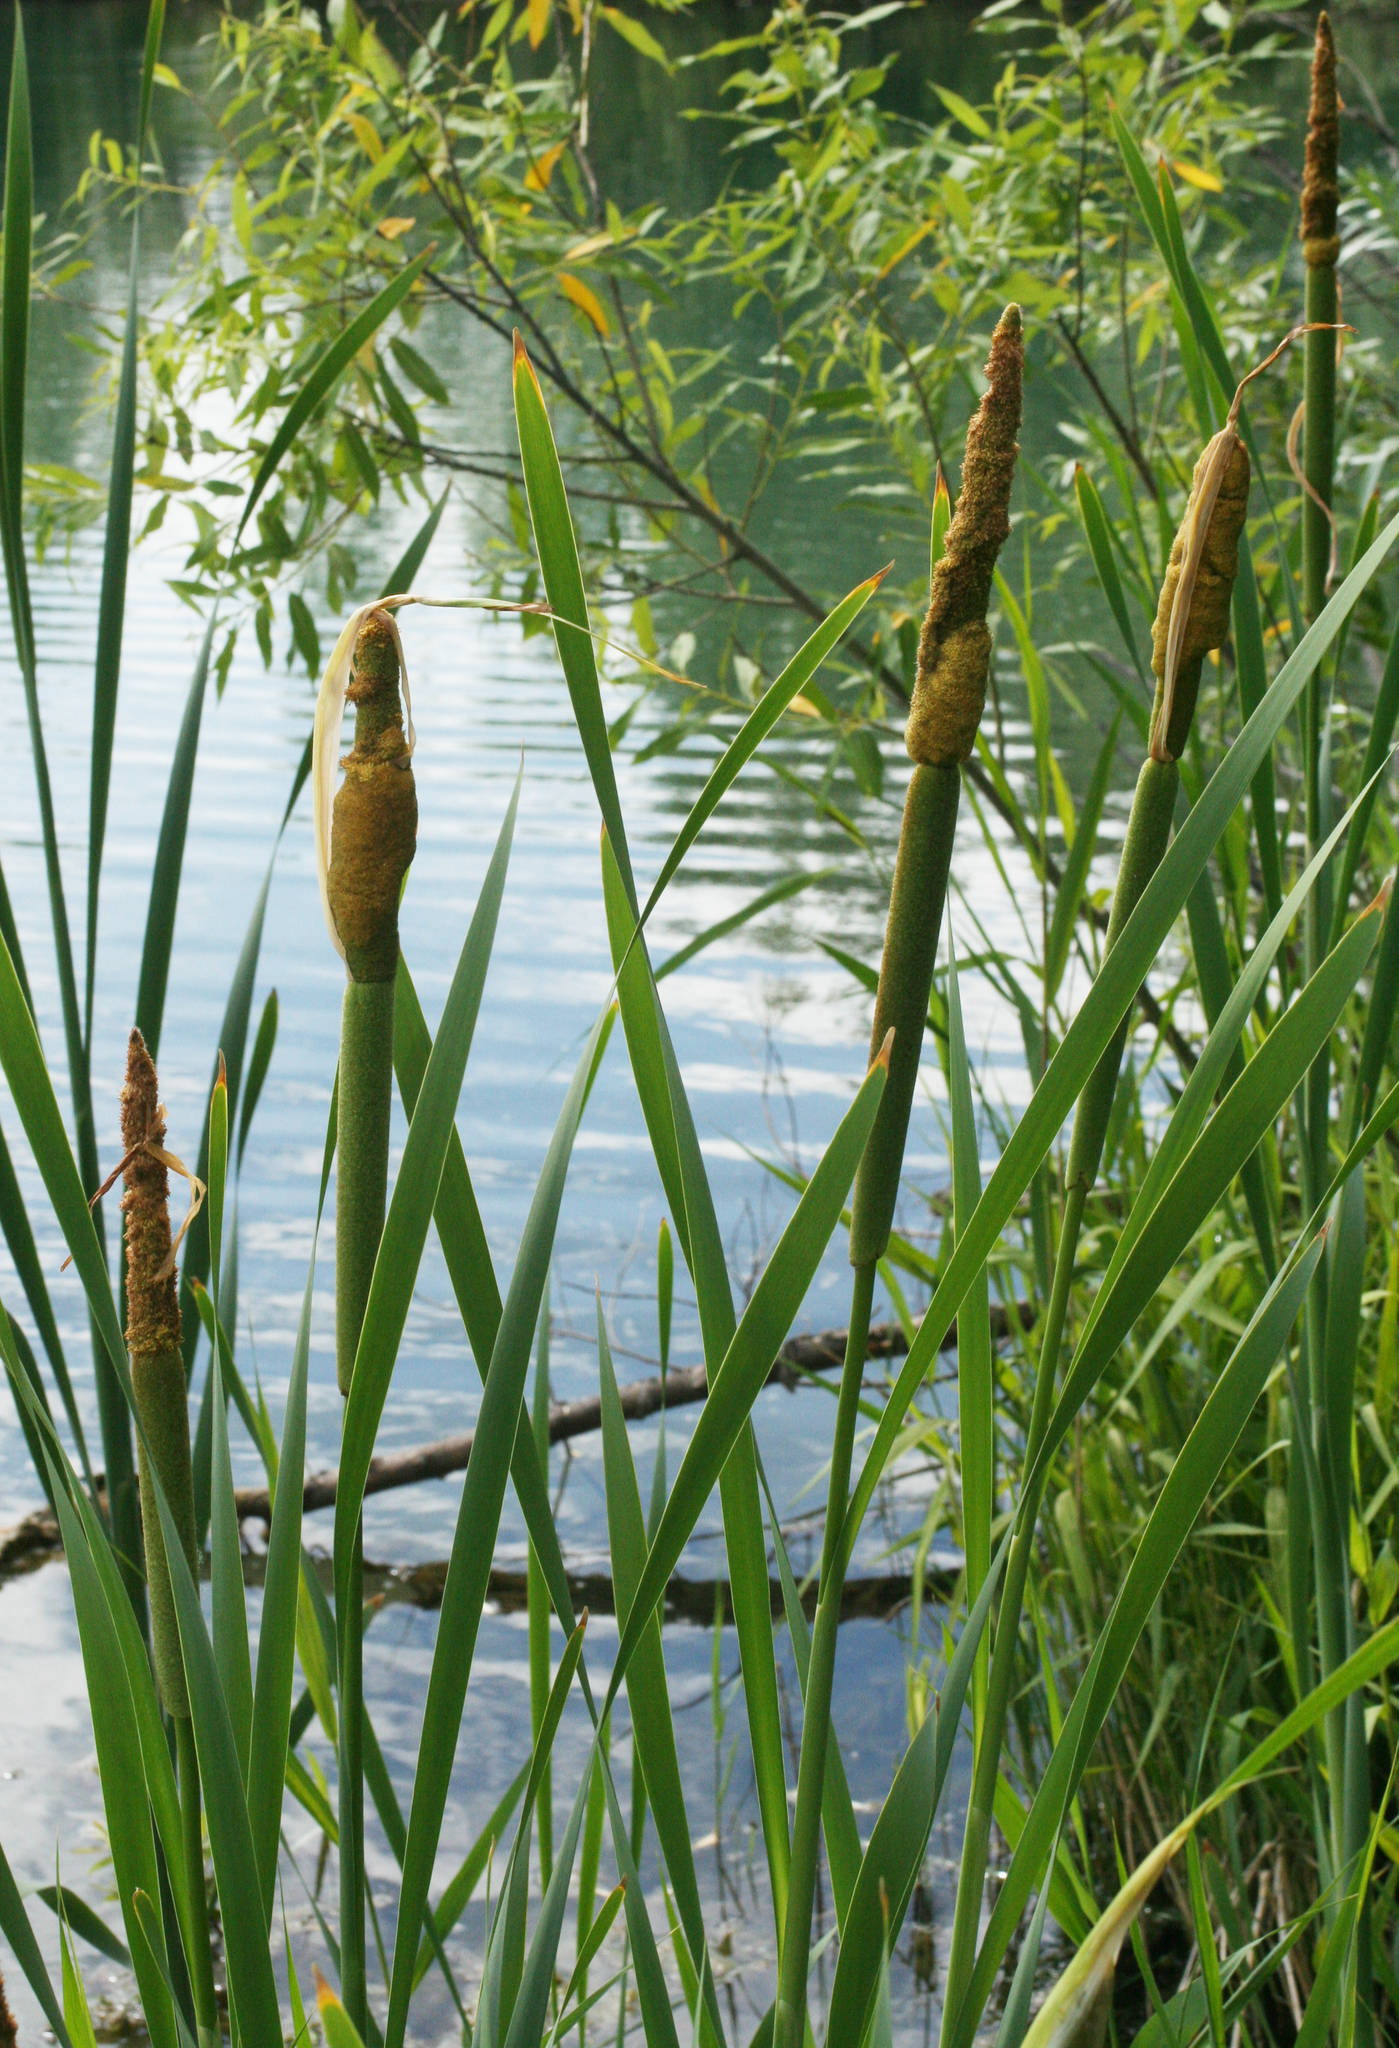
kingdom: Plantae
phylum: Tracheophyta
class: Liliopsida
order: Poales
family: Typhaceae
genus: Typha
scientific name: Typha latifolia
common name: Broadleaf cattail
